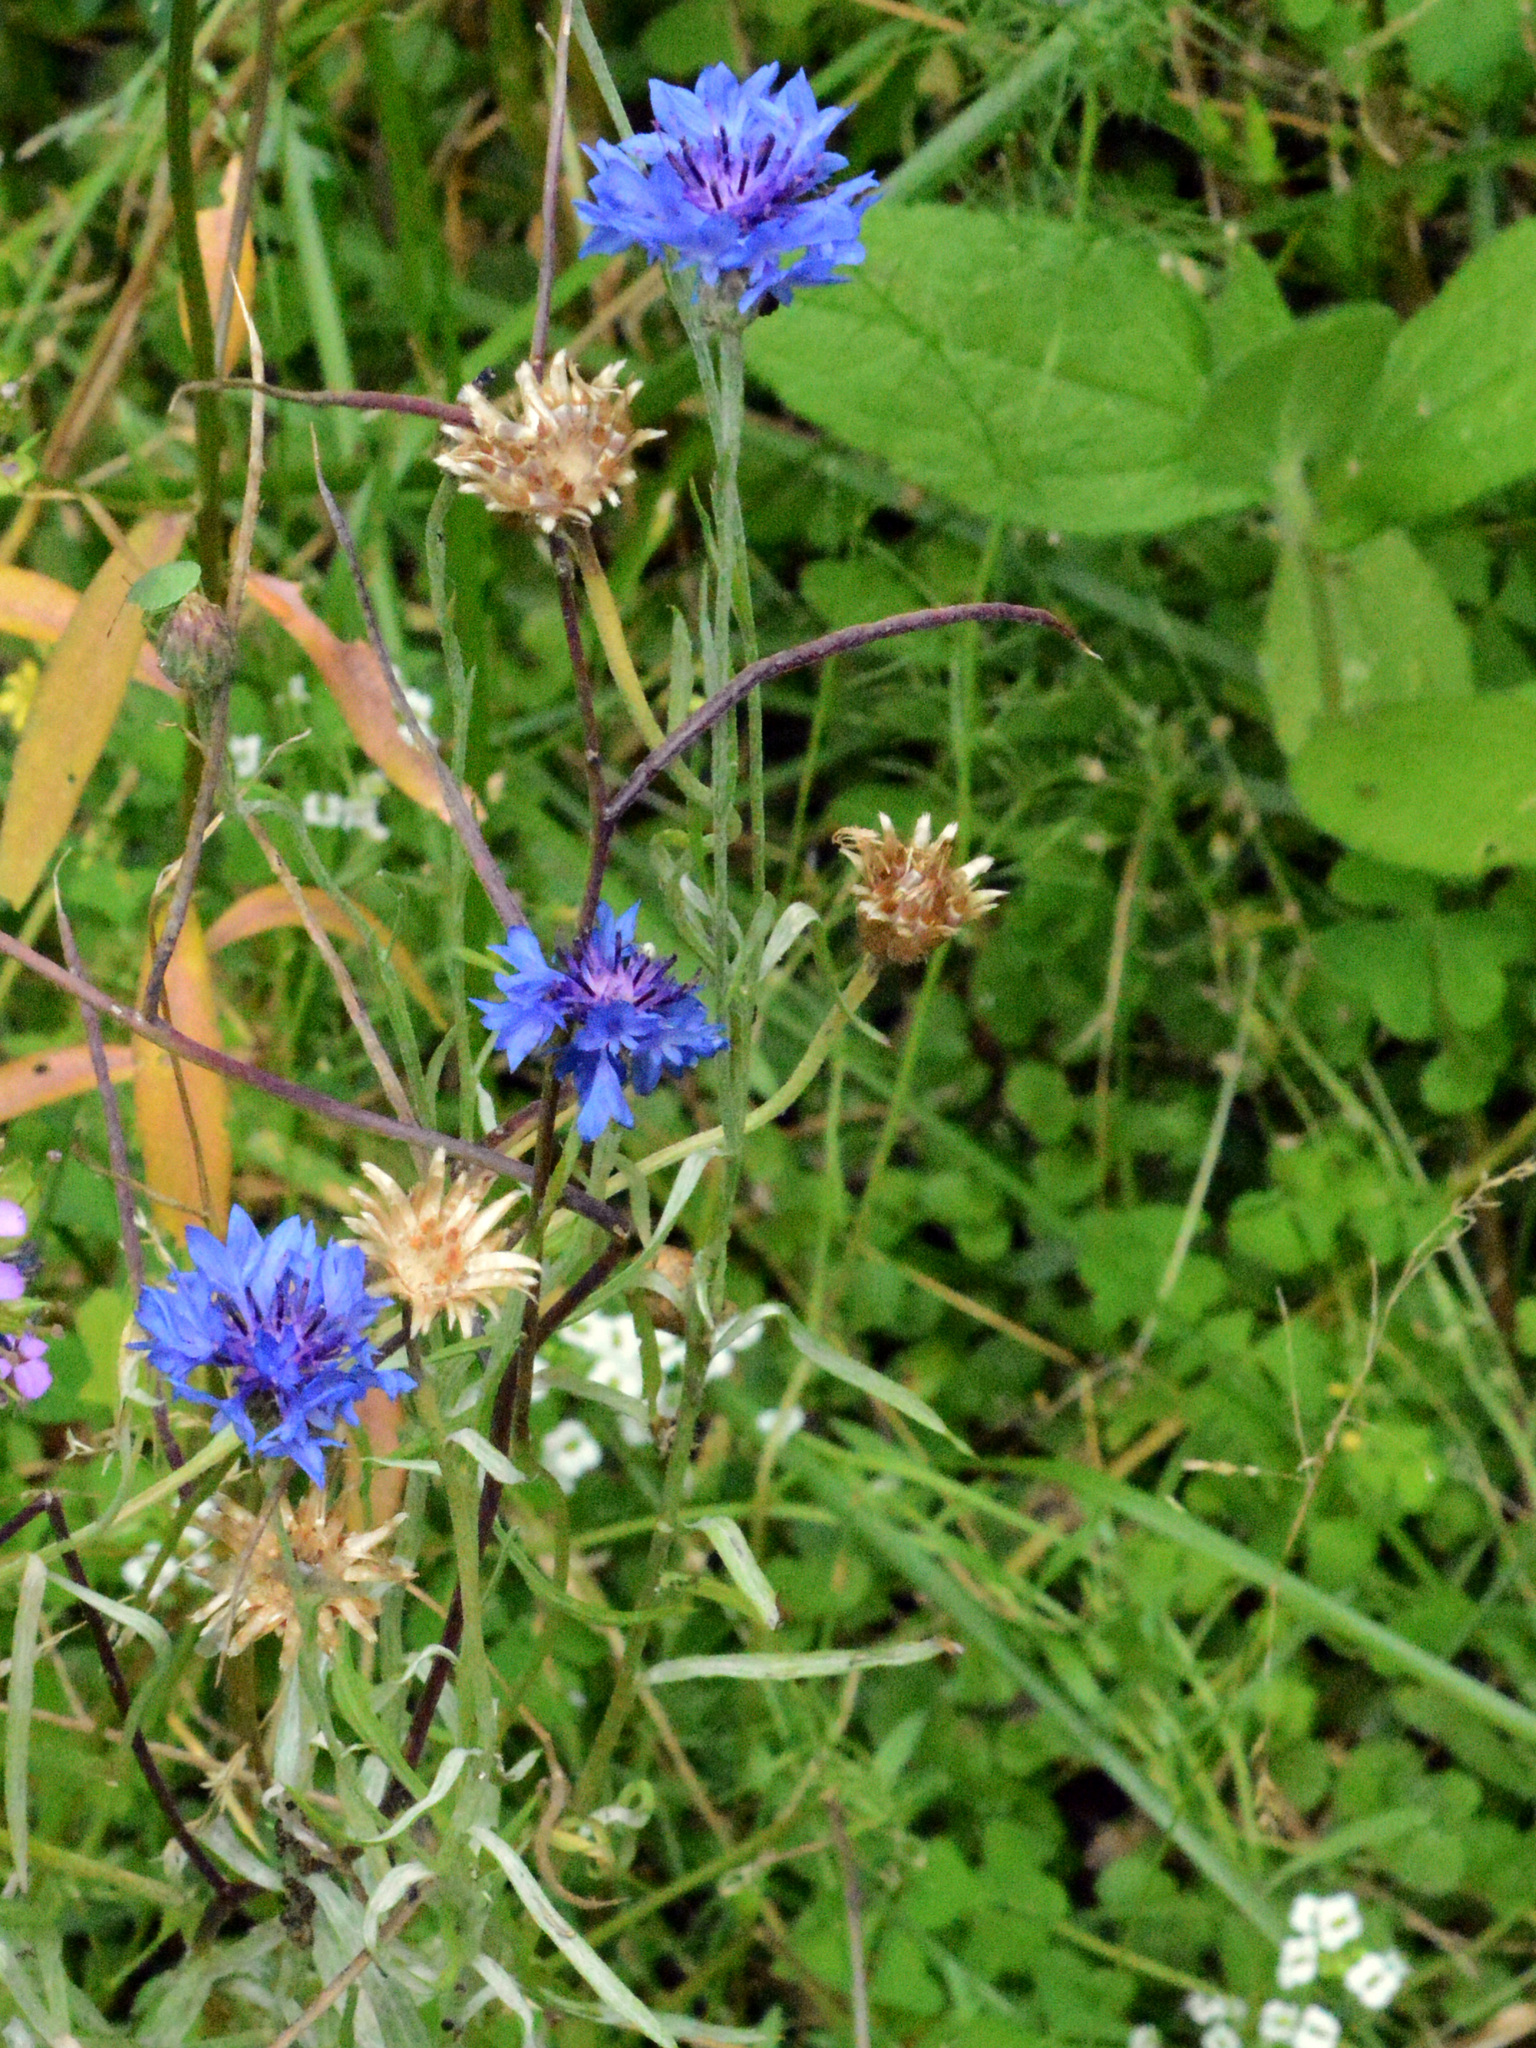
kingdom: Plantae
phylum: Tracheophyta
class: Magnoliopsida
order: Asterales
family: Asteraceae
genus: Centaurea
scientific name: Centaurea cyanus
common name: Cornflower
